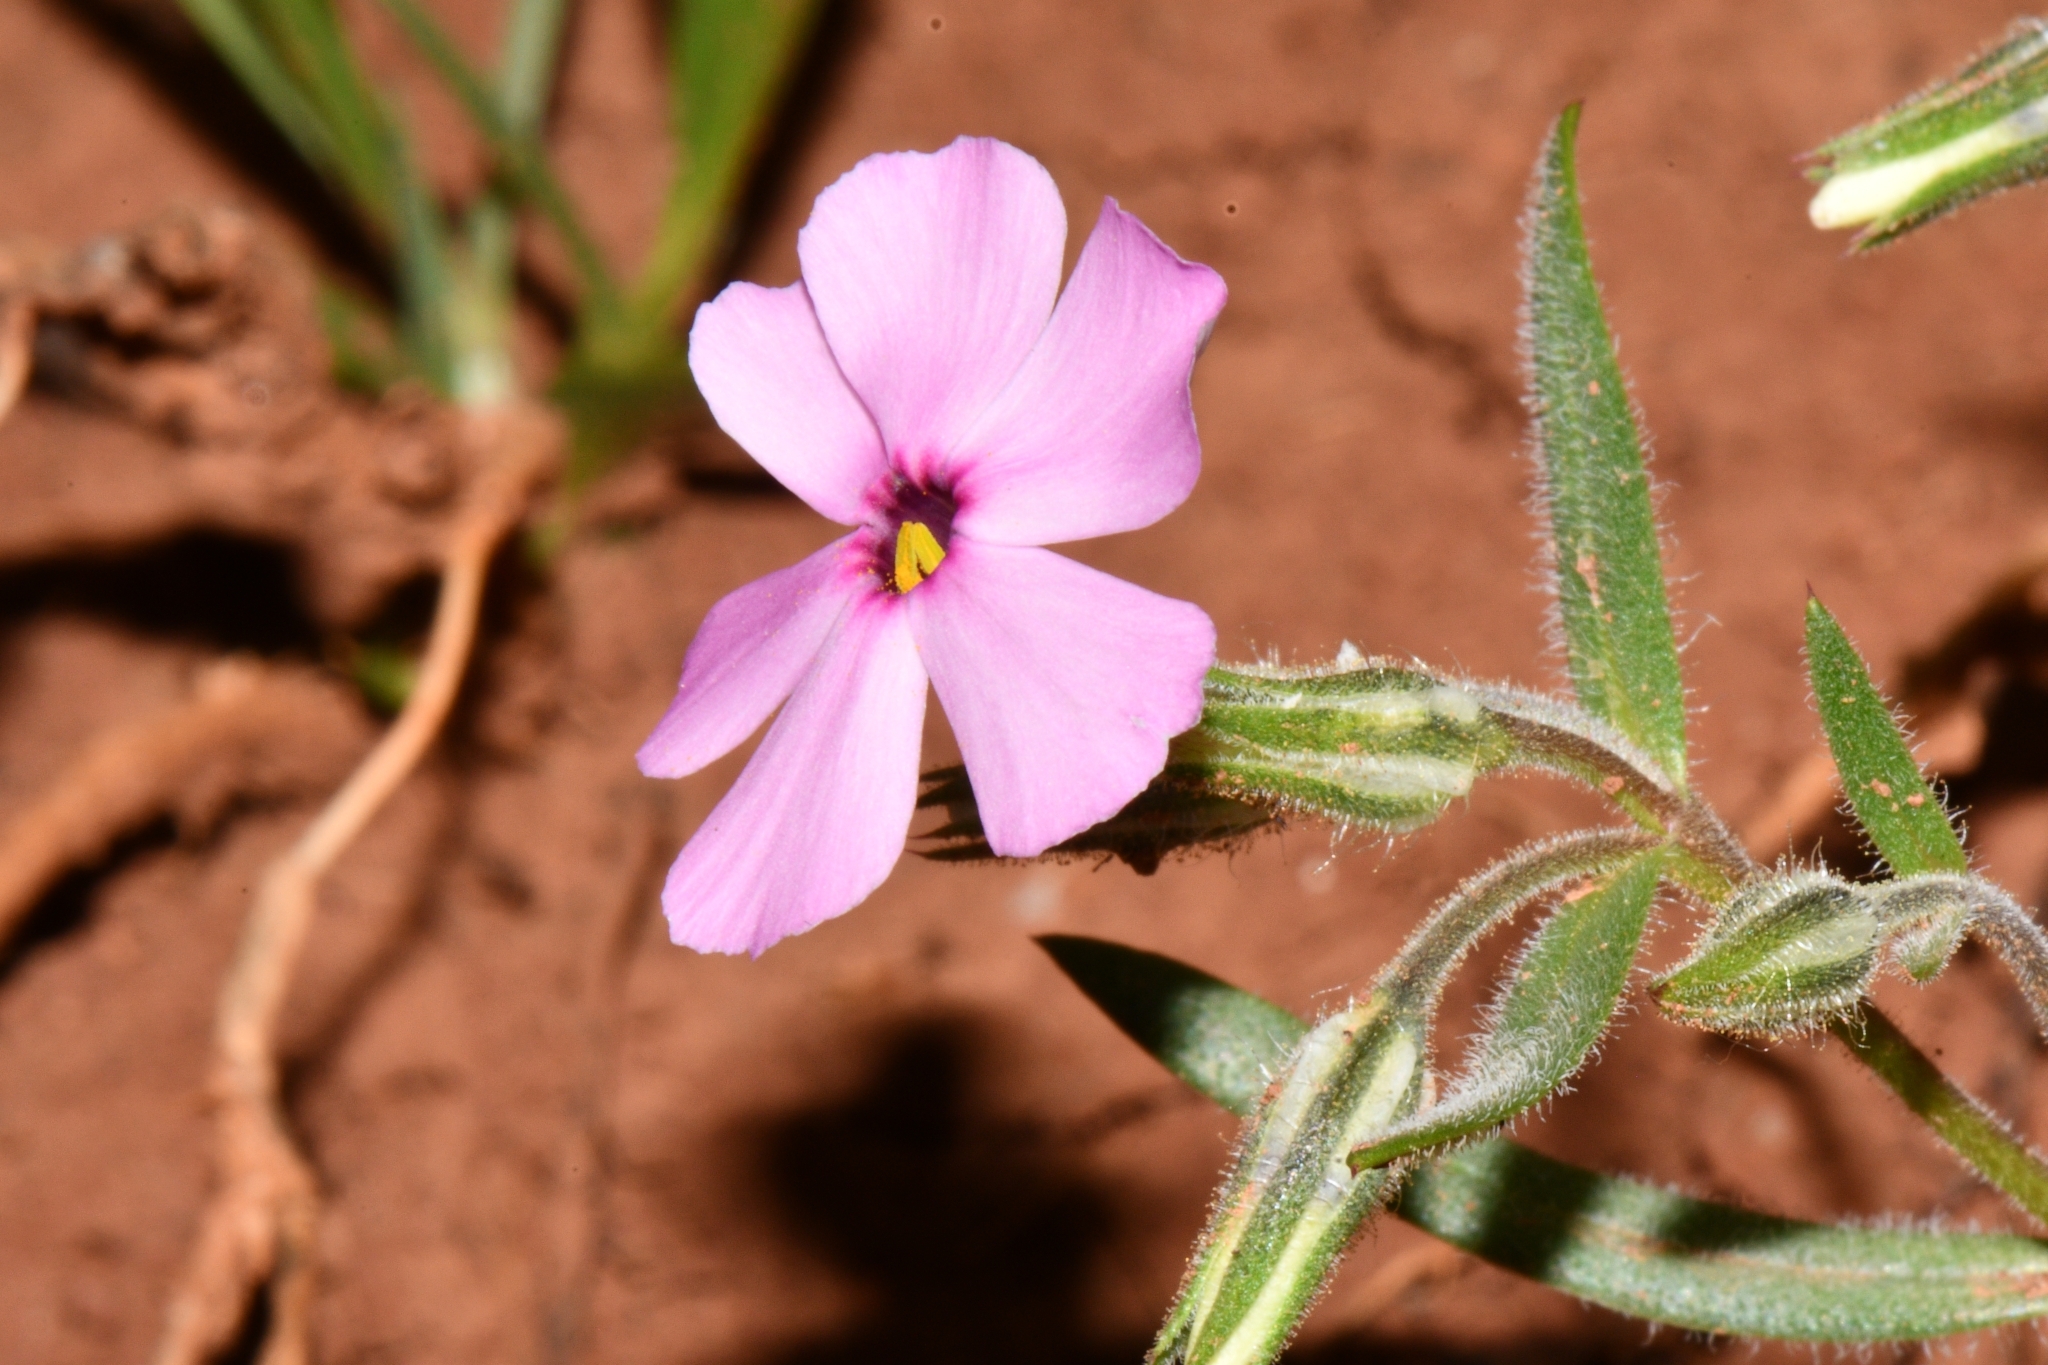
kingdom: Plantae
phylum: Tracheophyta
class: Magnoliopsida
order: Ericales
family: Polemoniaceae
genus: Phlox
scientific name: Phlox longifolia
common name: Longleaf phlox
